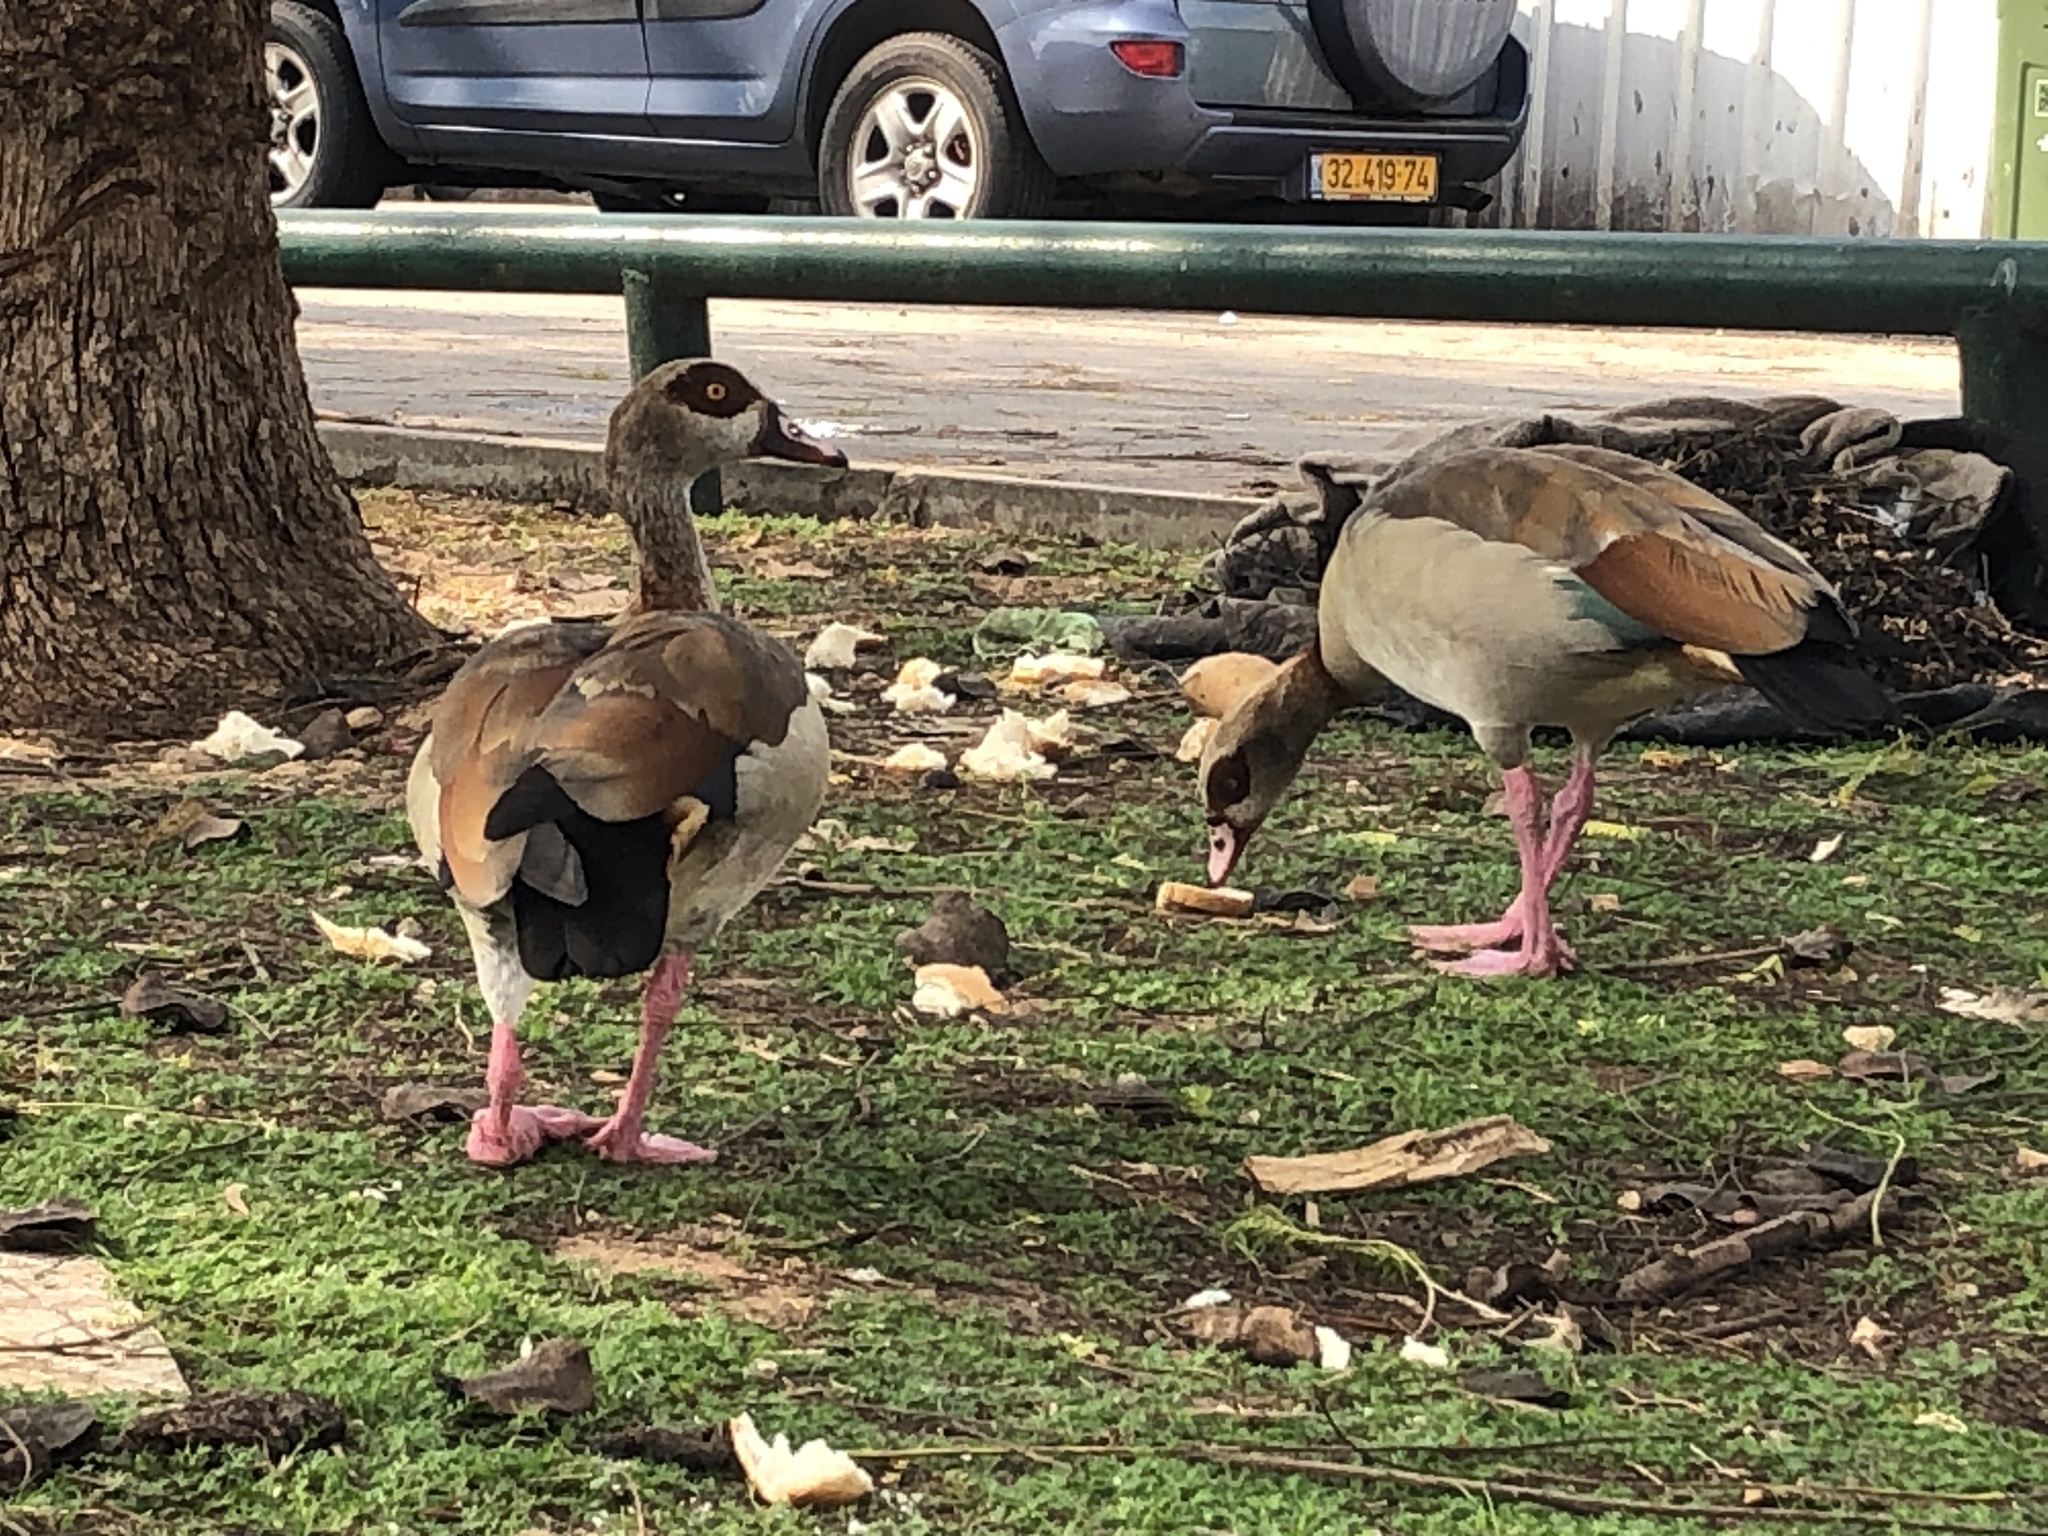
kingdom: Animalia
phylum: Chordata
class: Aves
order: Anseriformes
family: Anatidae
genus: Alopochen
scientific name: Alopochen aegyptiaca
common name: Egyptian goose
